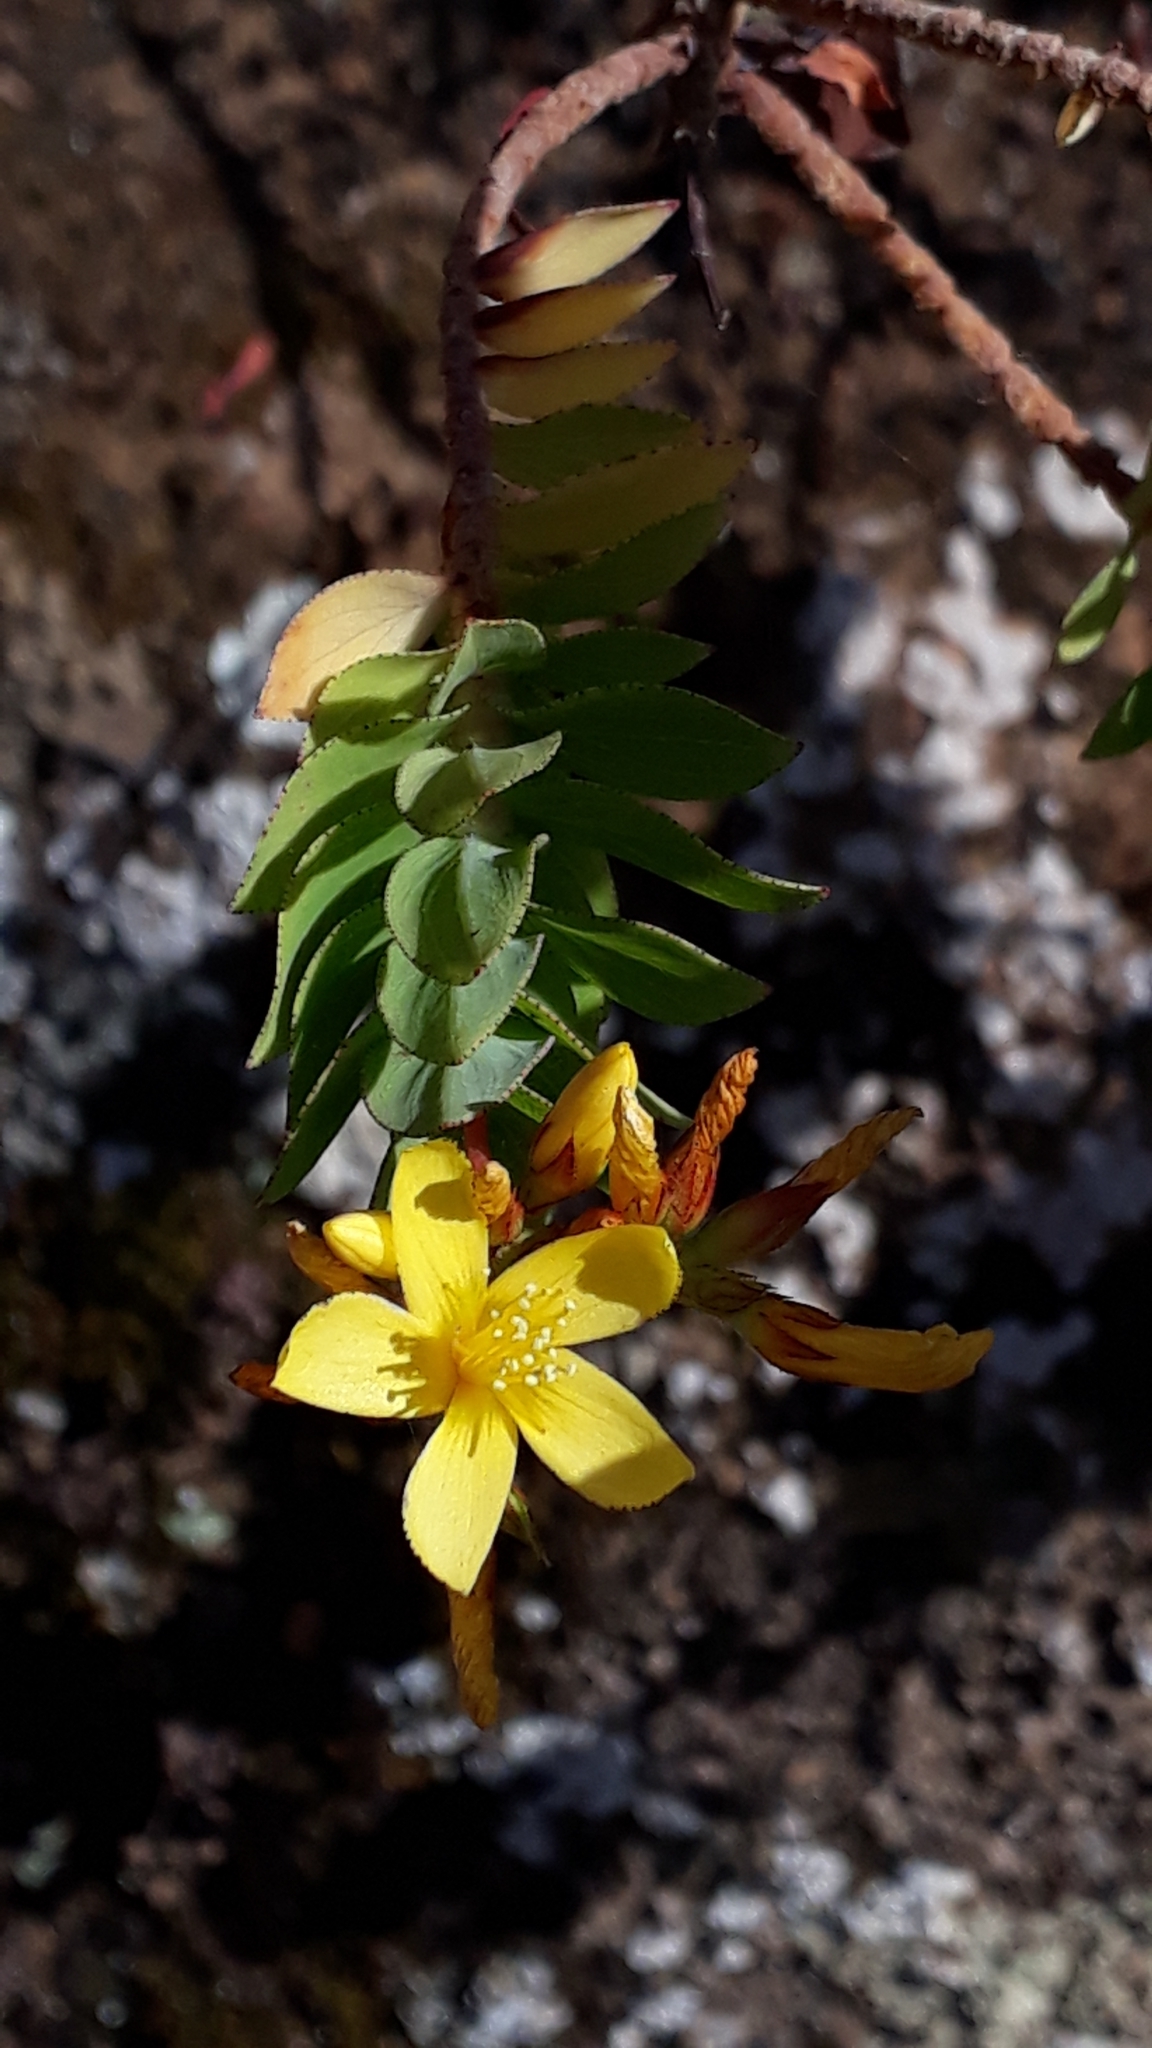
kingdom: Plantae
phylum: Tracheophyta
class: Magnoliopsida
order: Malpighiales
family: Hypericaceae
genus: Hypericum
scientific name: Hypericum reflexum
